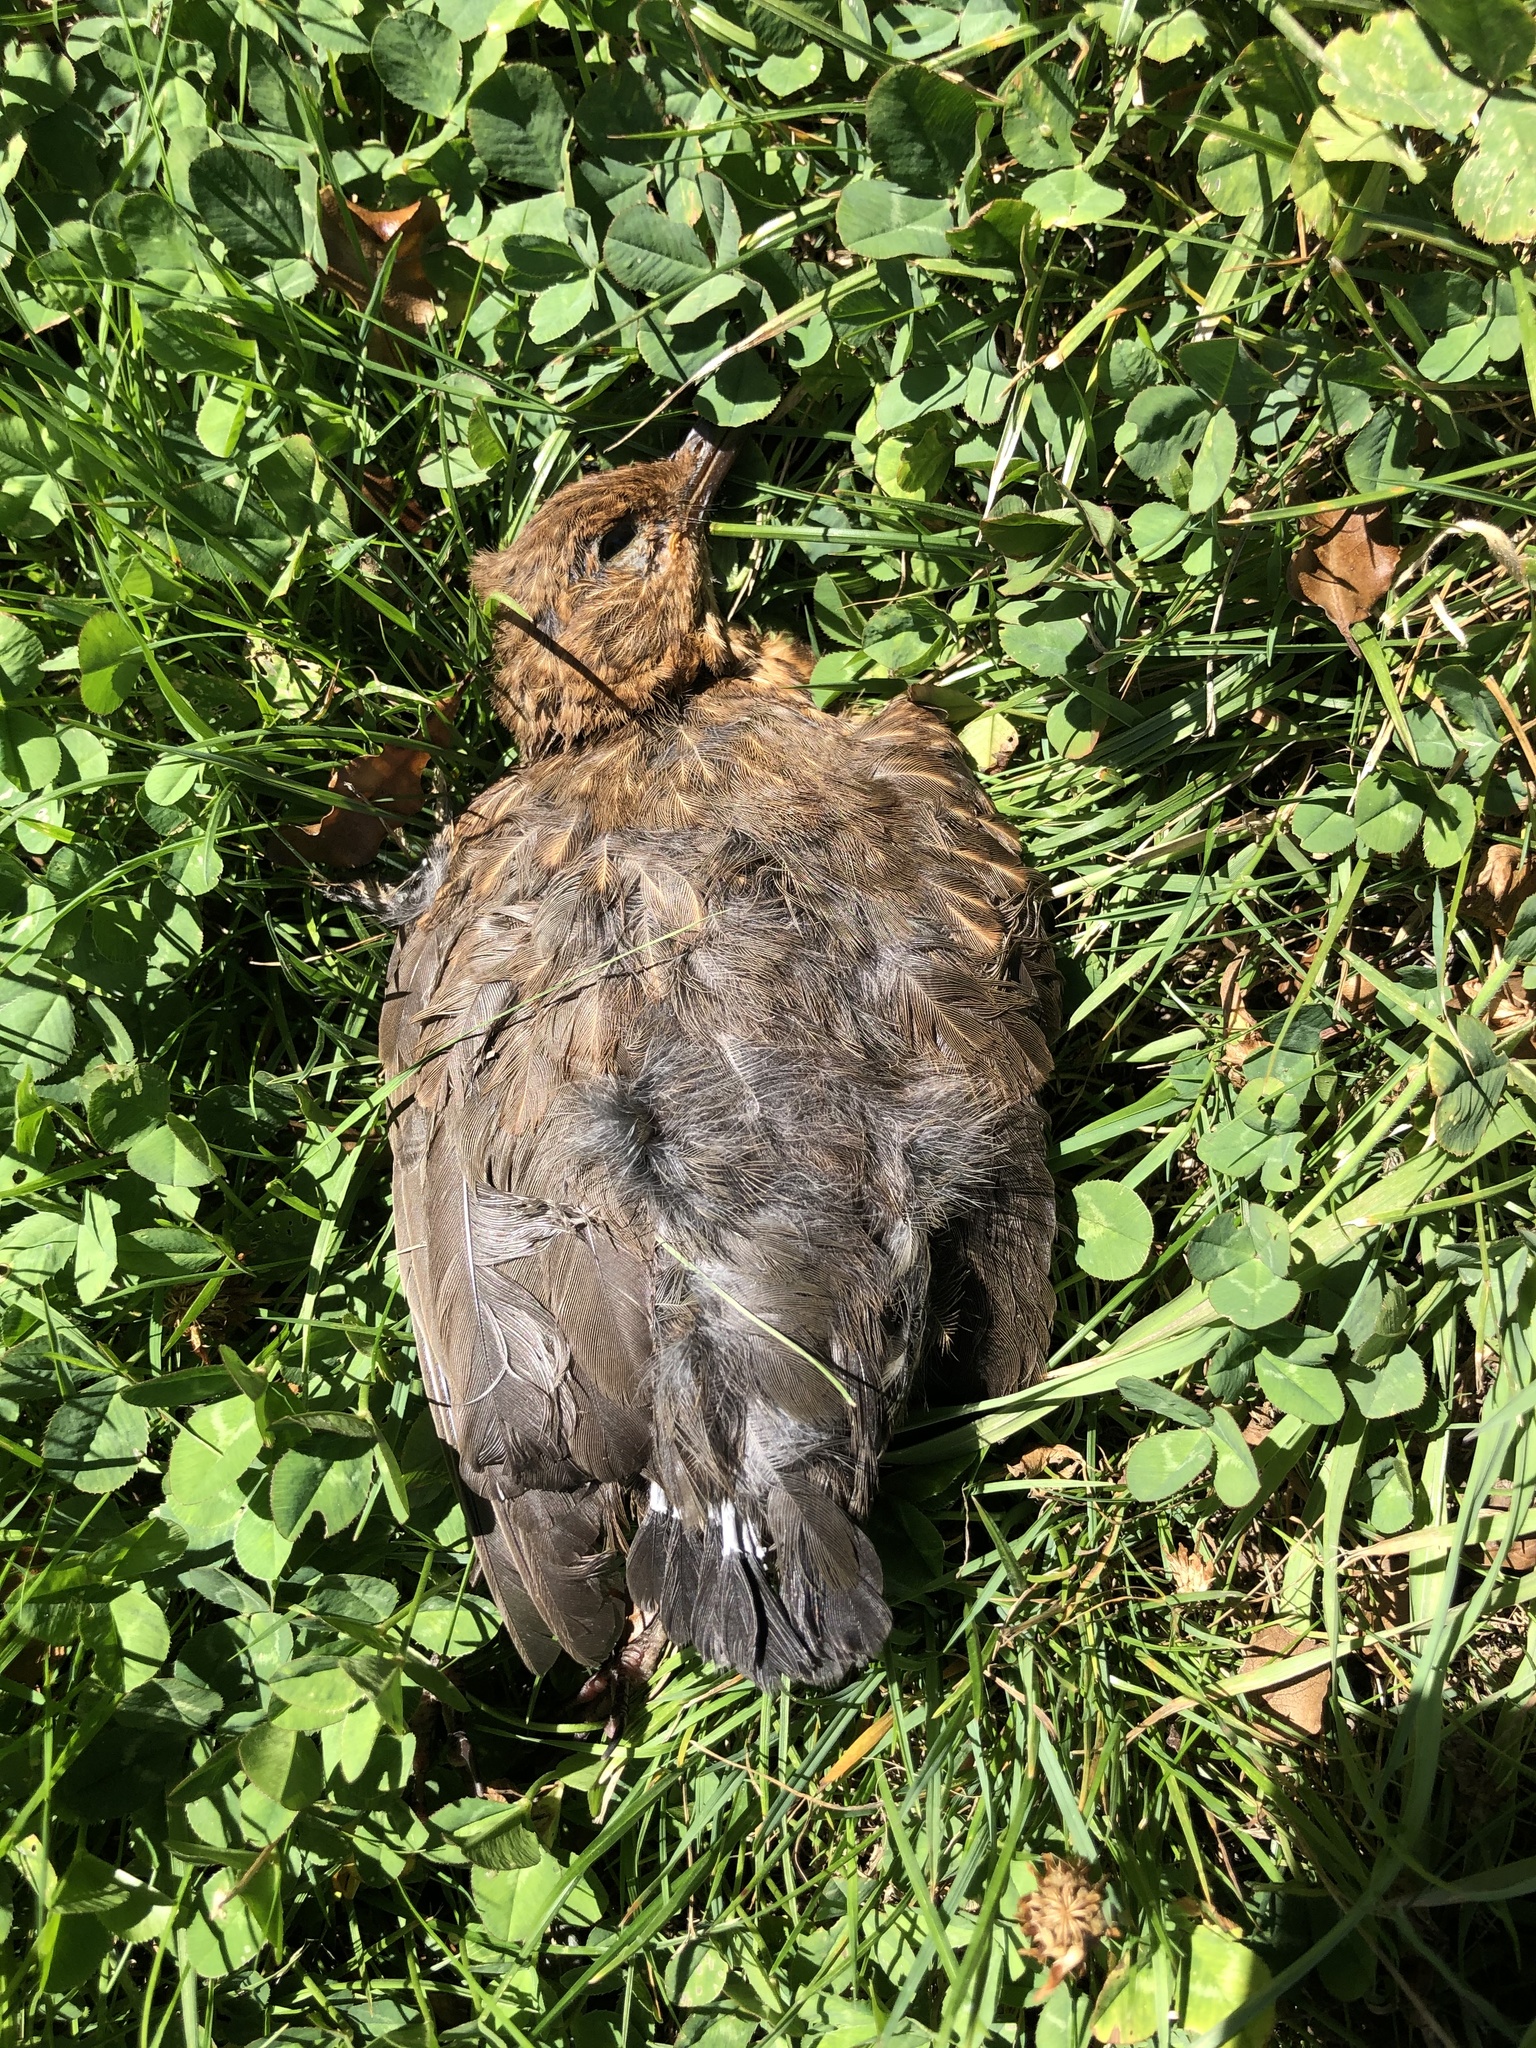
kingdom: Animalia
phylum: Chordata
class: Aves
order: Passeriformes
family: Turdidae
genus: Turdus
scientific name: Turdus merula
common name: Common blackbird
